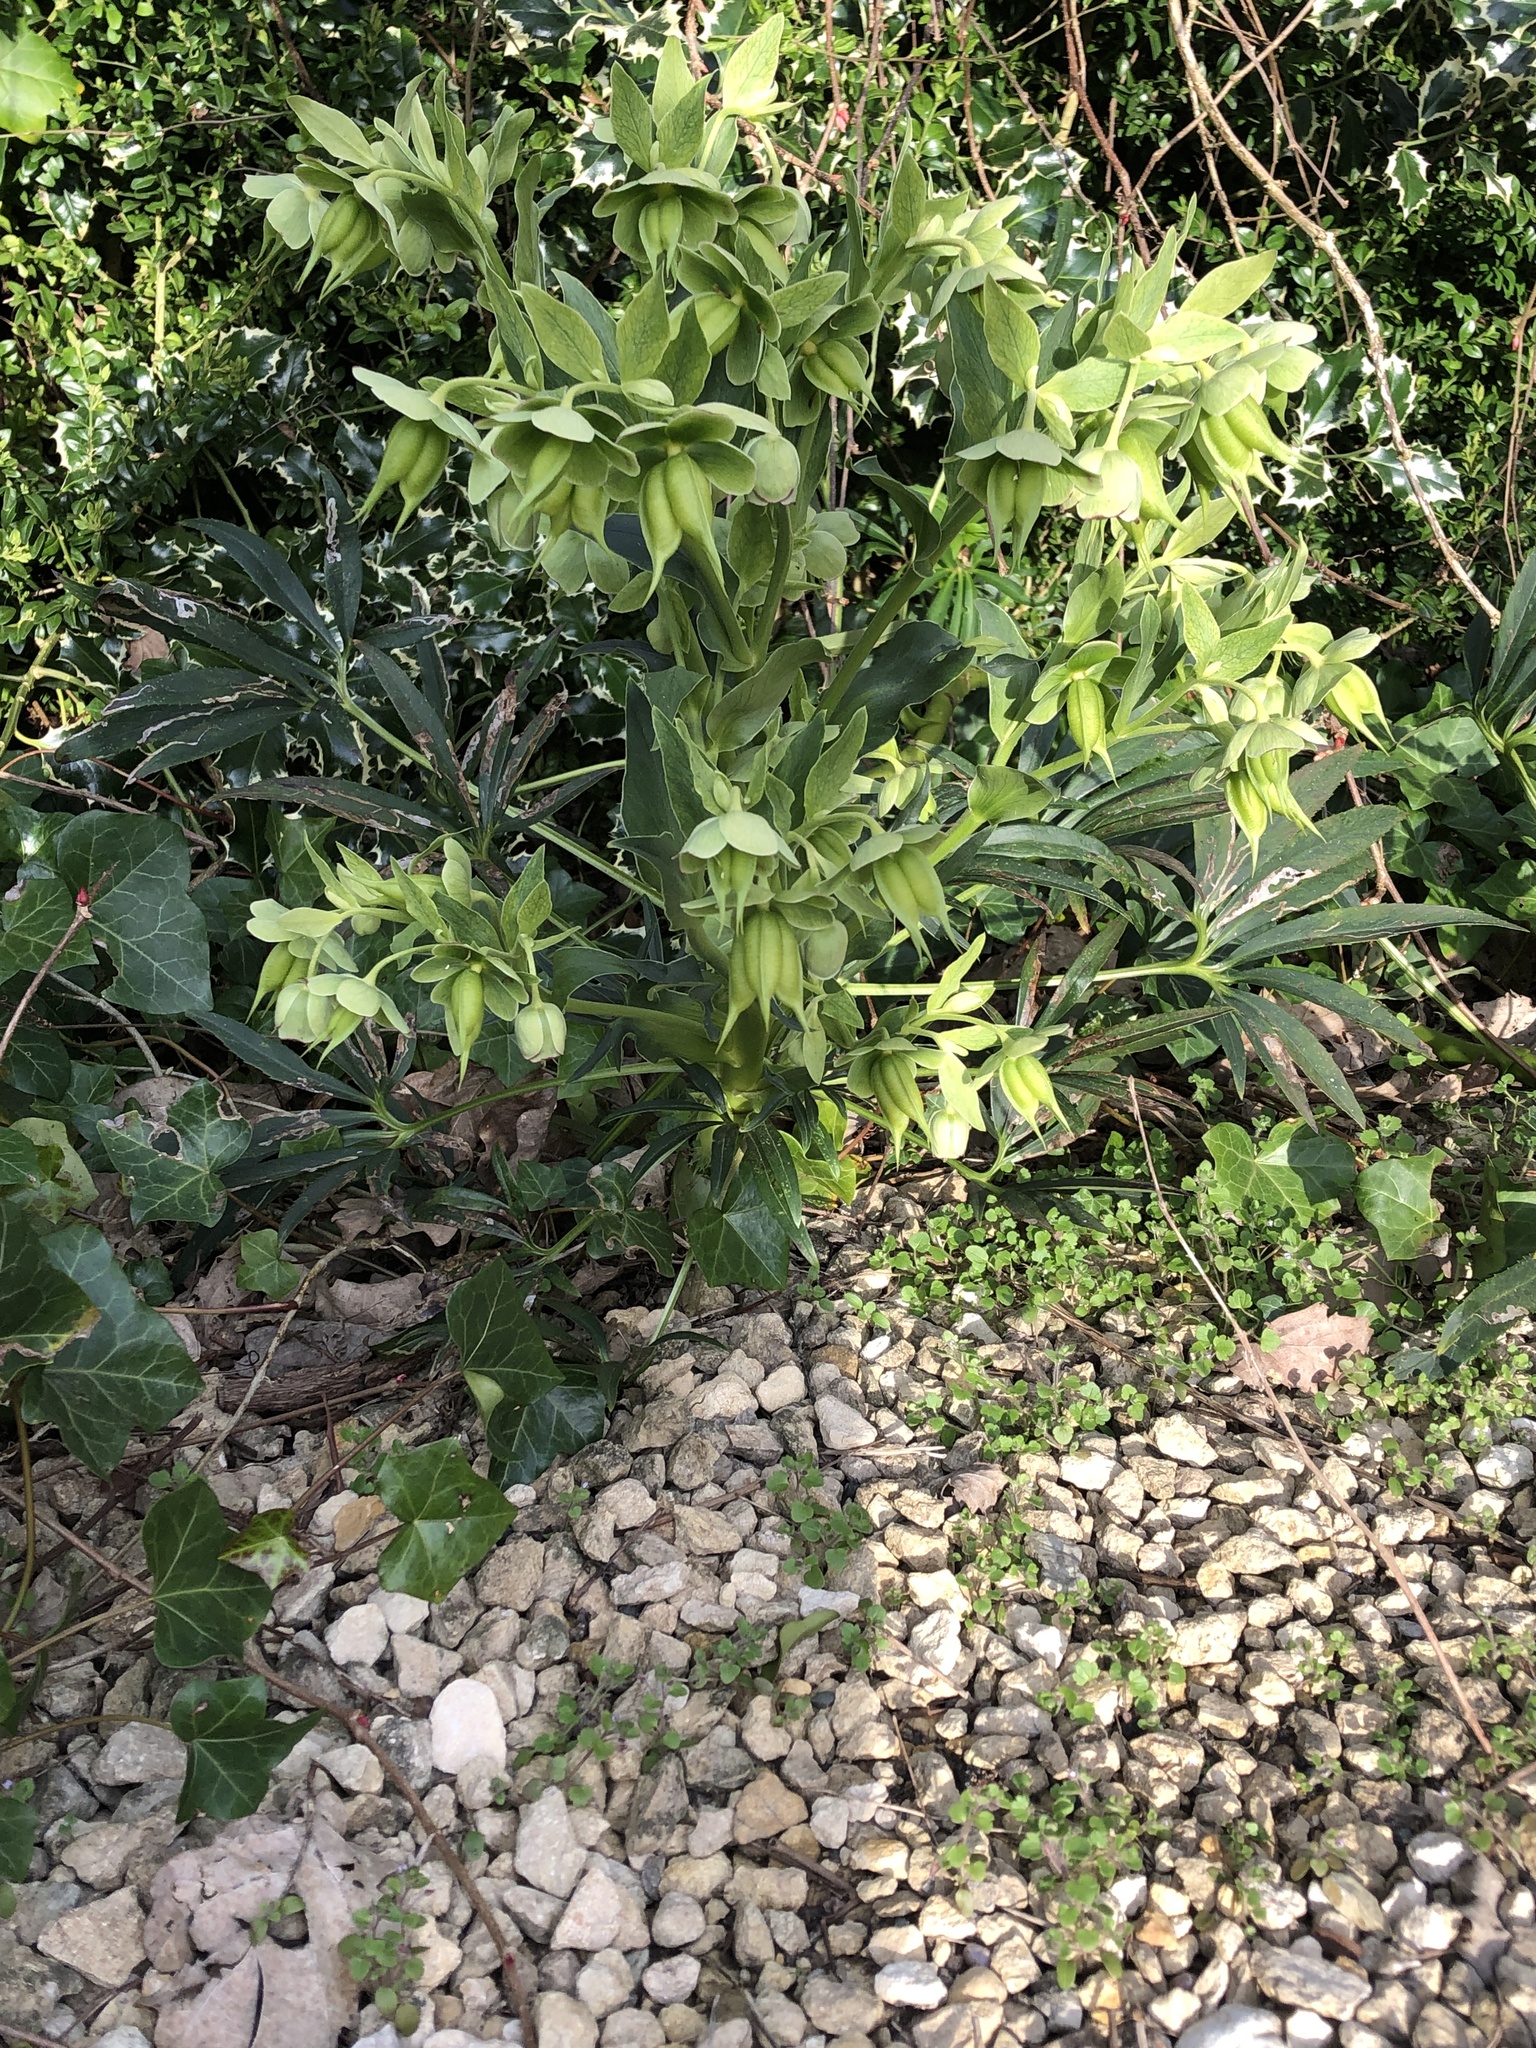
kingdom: Plantae
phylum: Tracheophyta
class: Magnoliopsida
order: Ranunculales
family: Ranunculaceae
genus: Helleborus
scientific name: Helleborus foetidus
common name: Stinking hellebore
